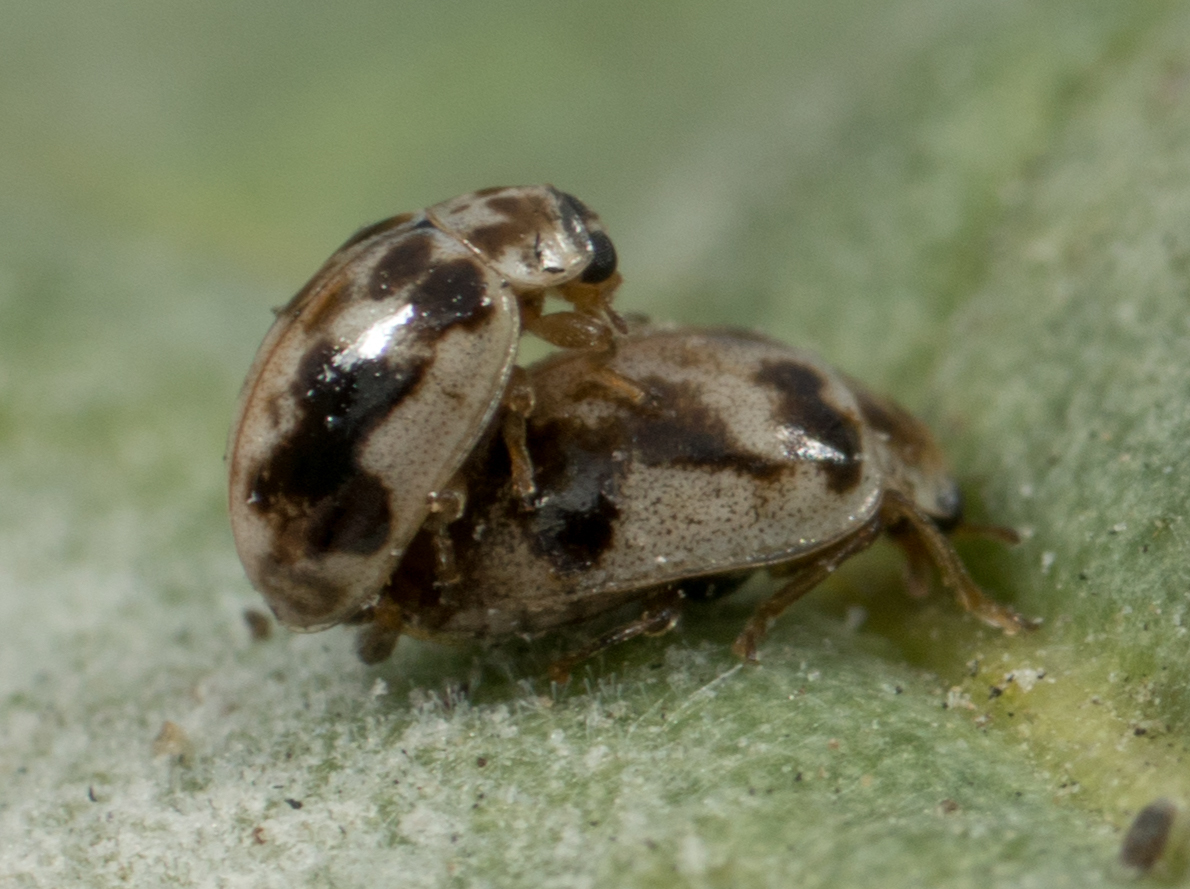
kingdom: Animalia
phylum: Arthropoda
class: Insecta
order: Coleoptera
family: Coccinellidae
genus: Psyllobora
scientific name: Psyllobora renifer
